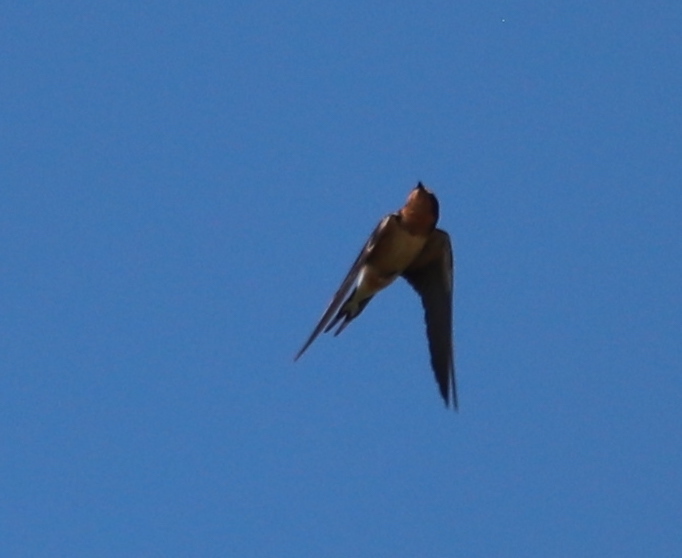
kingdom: Animalia
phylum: Chordata
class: Aves
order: Passeriformes
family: Hirundinidae
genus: Hirundo
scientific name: Hirundo rustica
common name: Barn swallow
